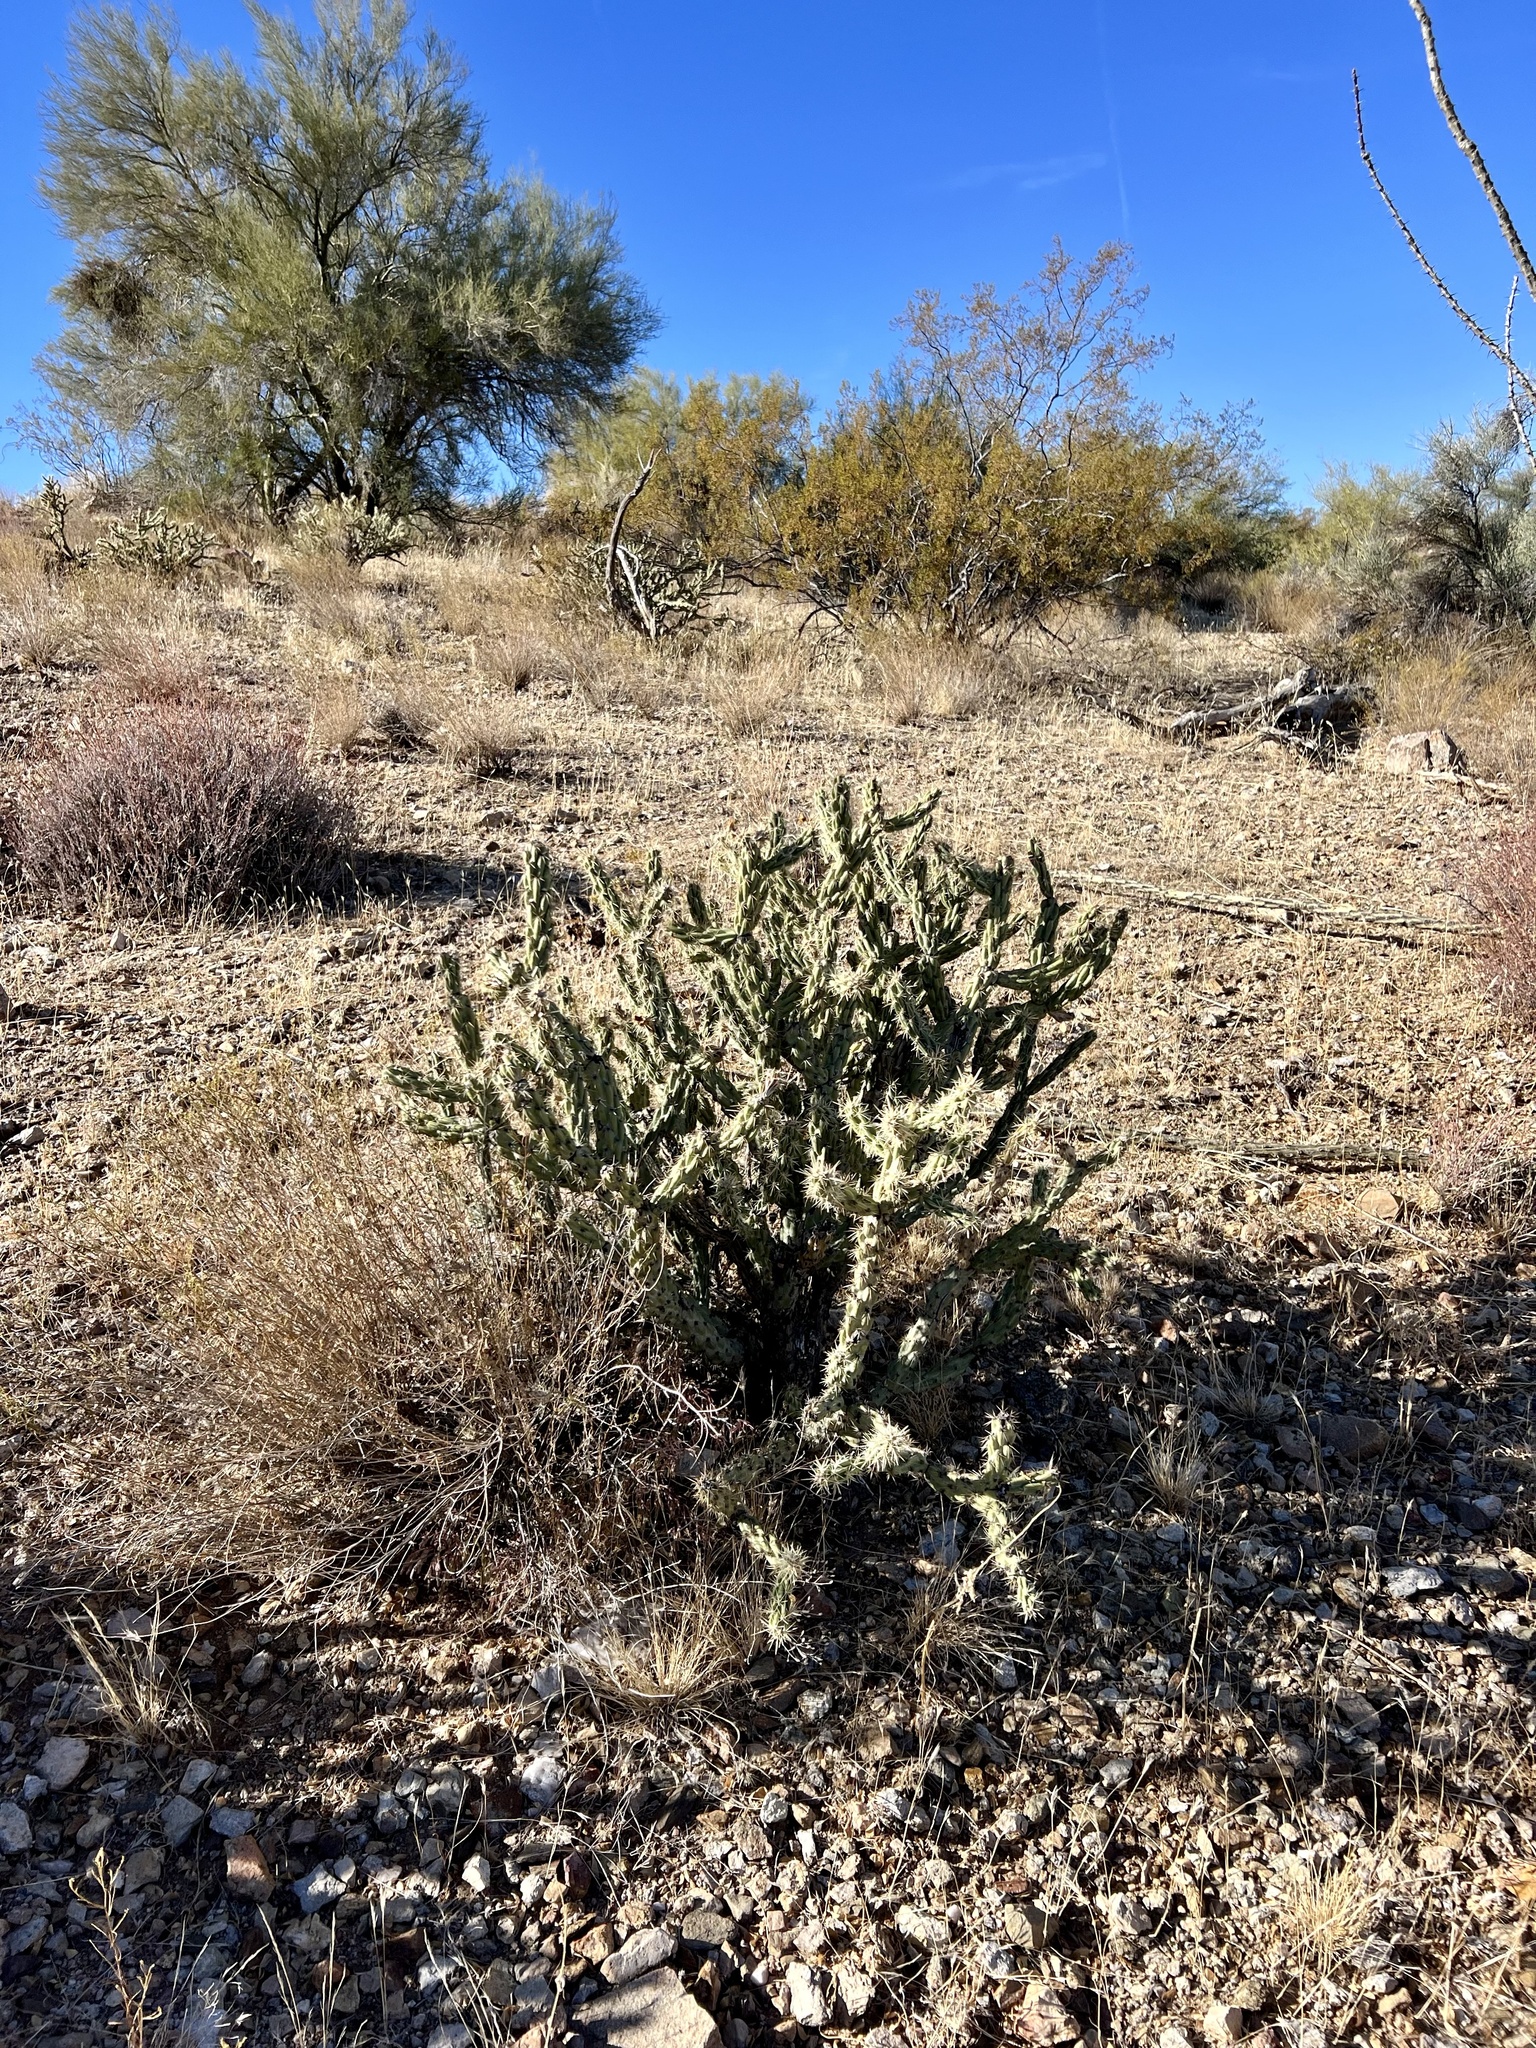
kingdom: Plantae
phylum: Tracheophyta
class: Magnoliopsida
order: Caryophyllales
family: Cactaceae
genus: Cylindropuntia
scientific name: Cylindropuntia acanthocarpa
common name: Buckhorn cholla
